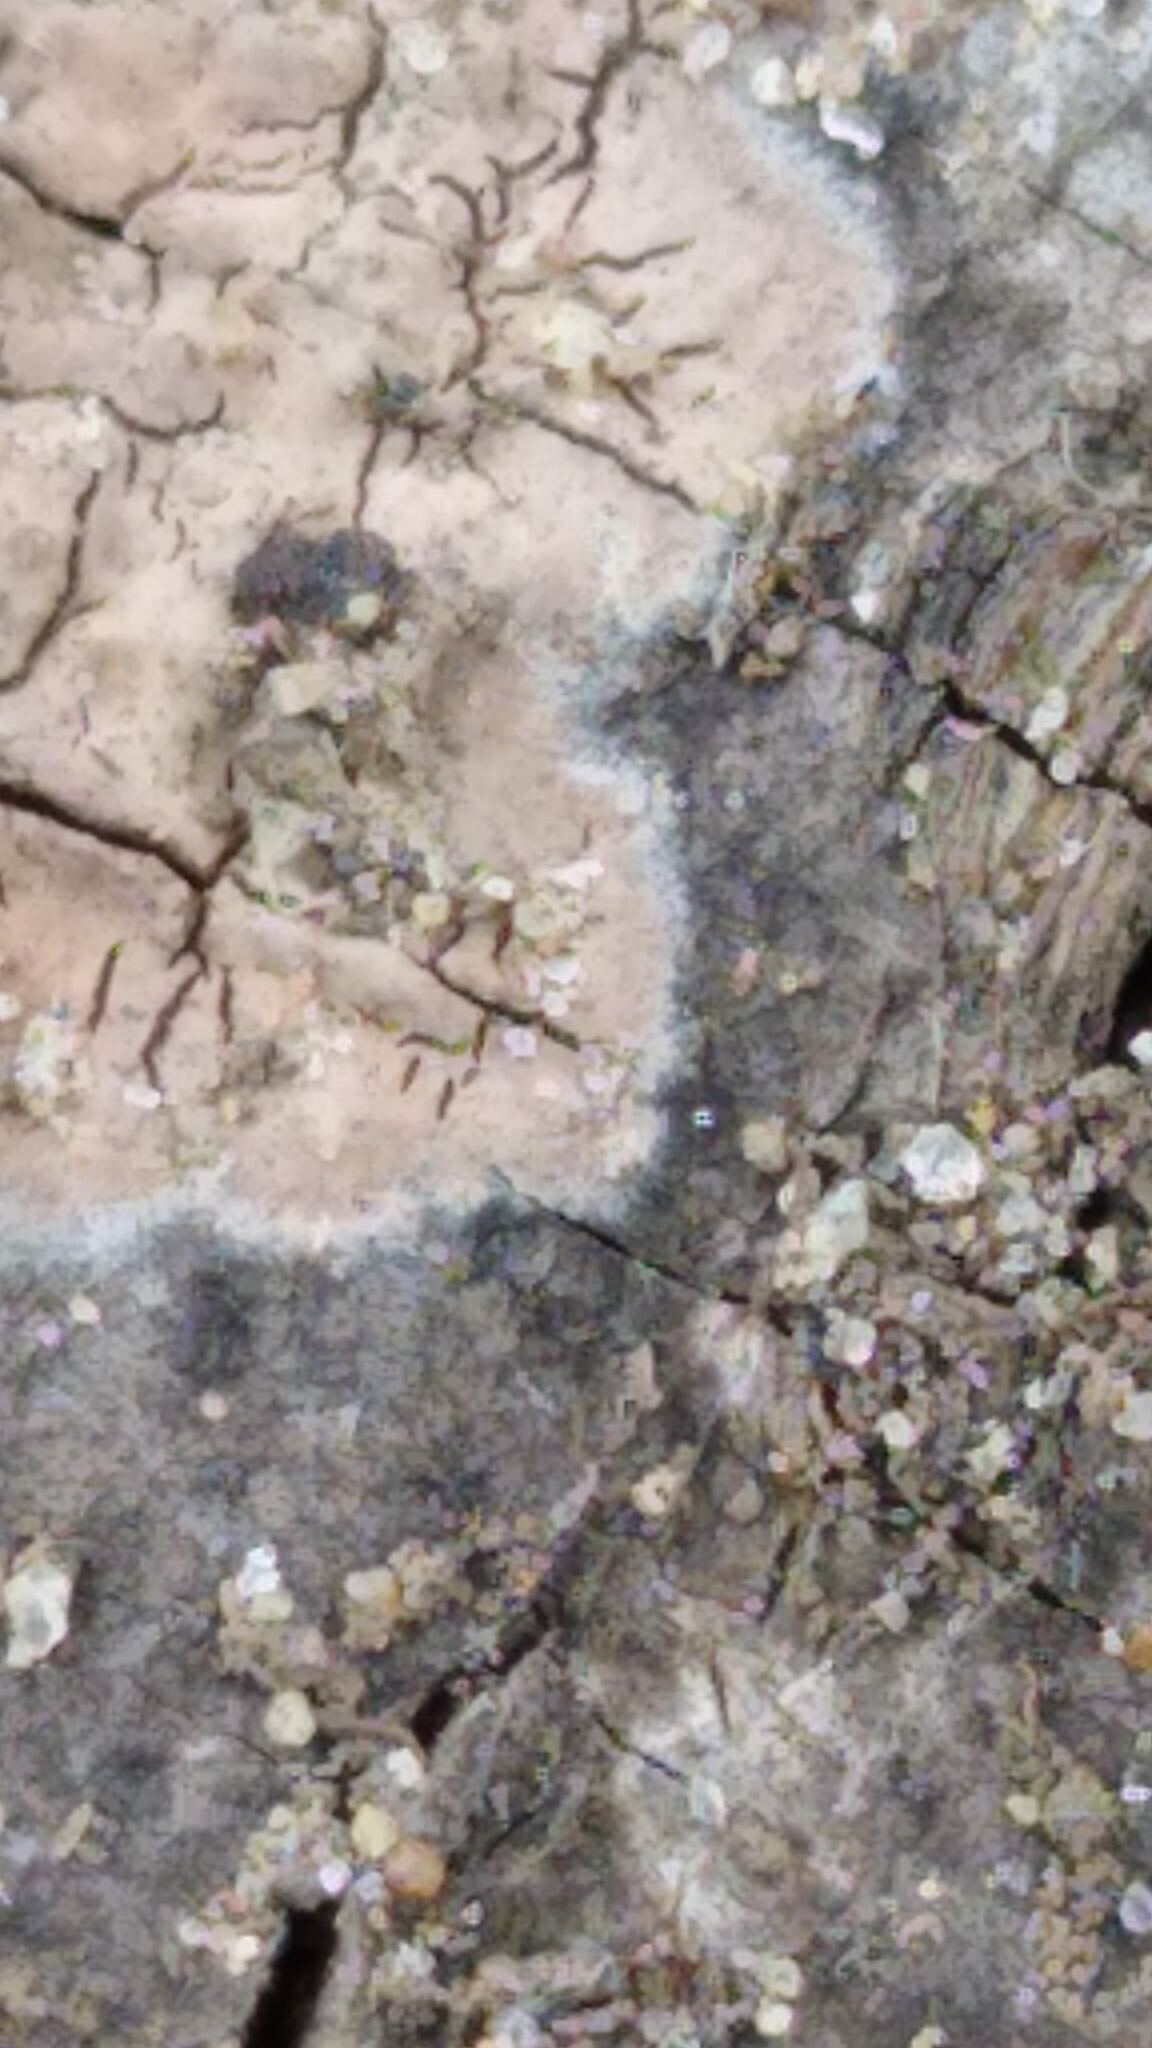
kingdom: Fungi
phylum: Basidiomycota
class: Agaricomycetes
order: Russulales
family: Peniophoraceae
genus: Peniophora
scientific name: Peniophora cinerea
